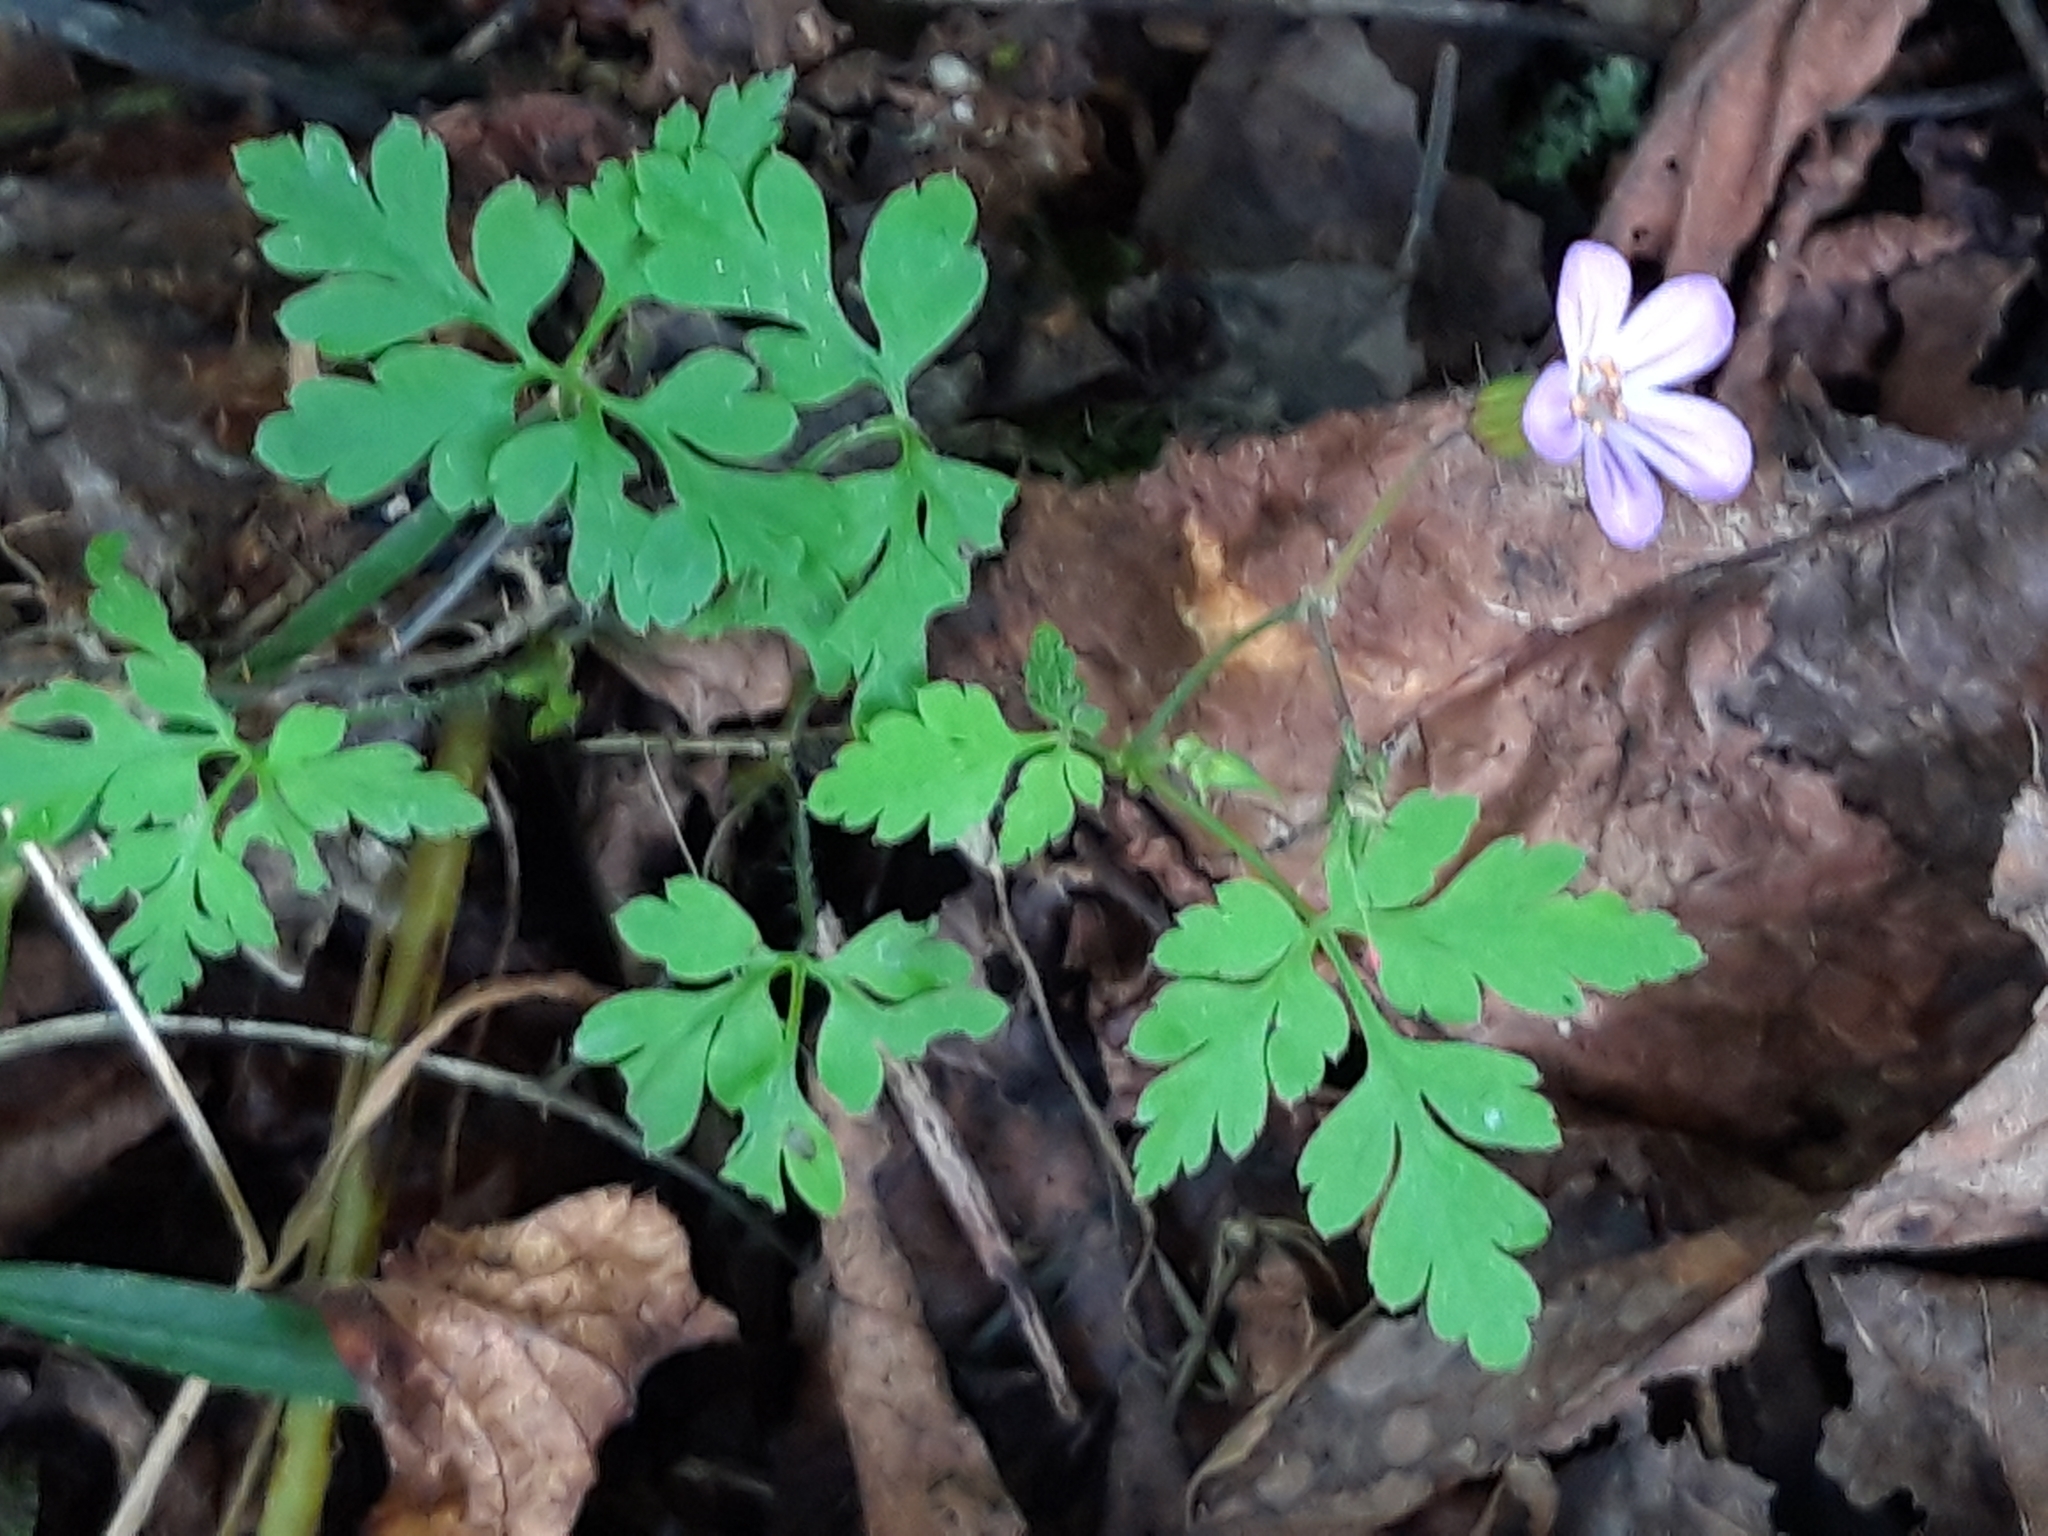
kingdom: Plantae
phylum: Tracheophyta
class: Magnoliopsida
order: Geraniales
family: Geraniaceae
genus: Geranium
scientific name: Geranium robertianum
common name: Herb-robert
